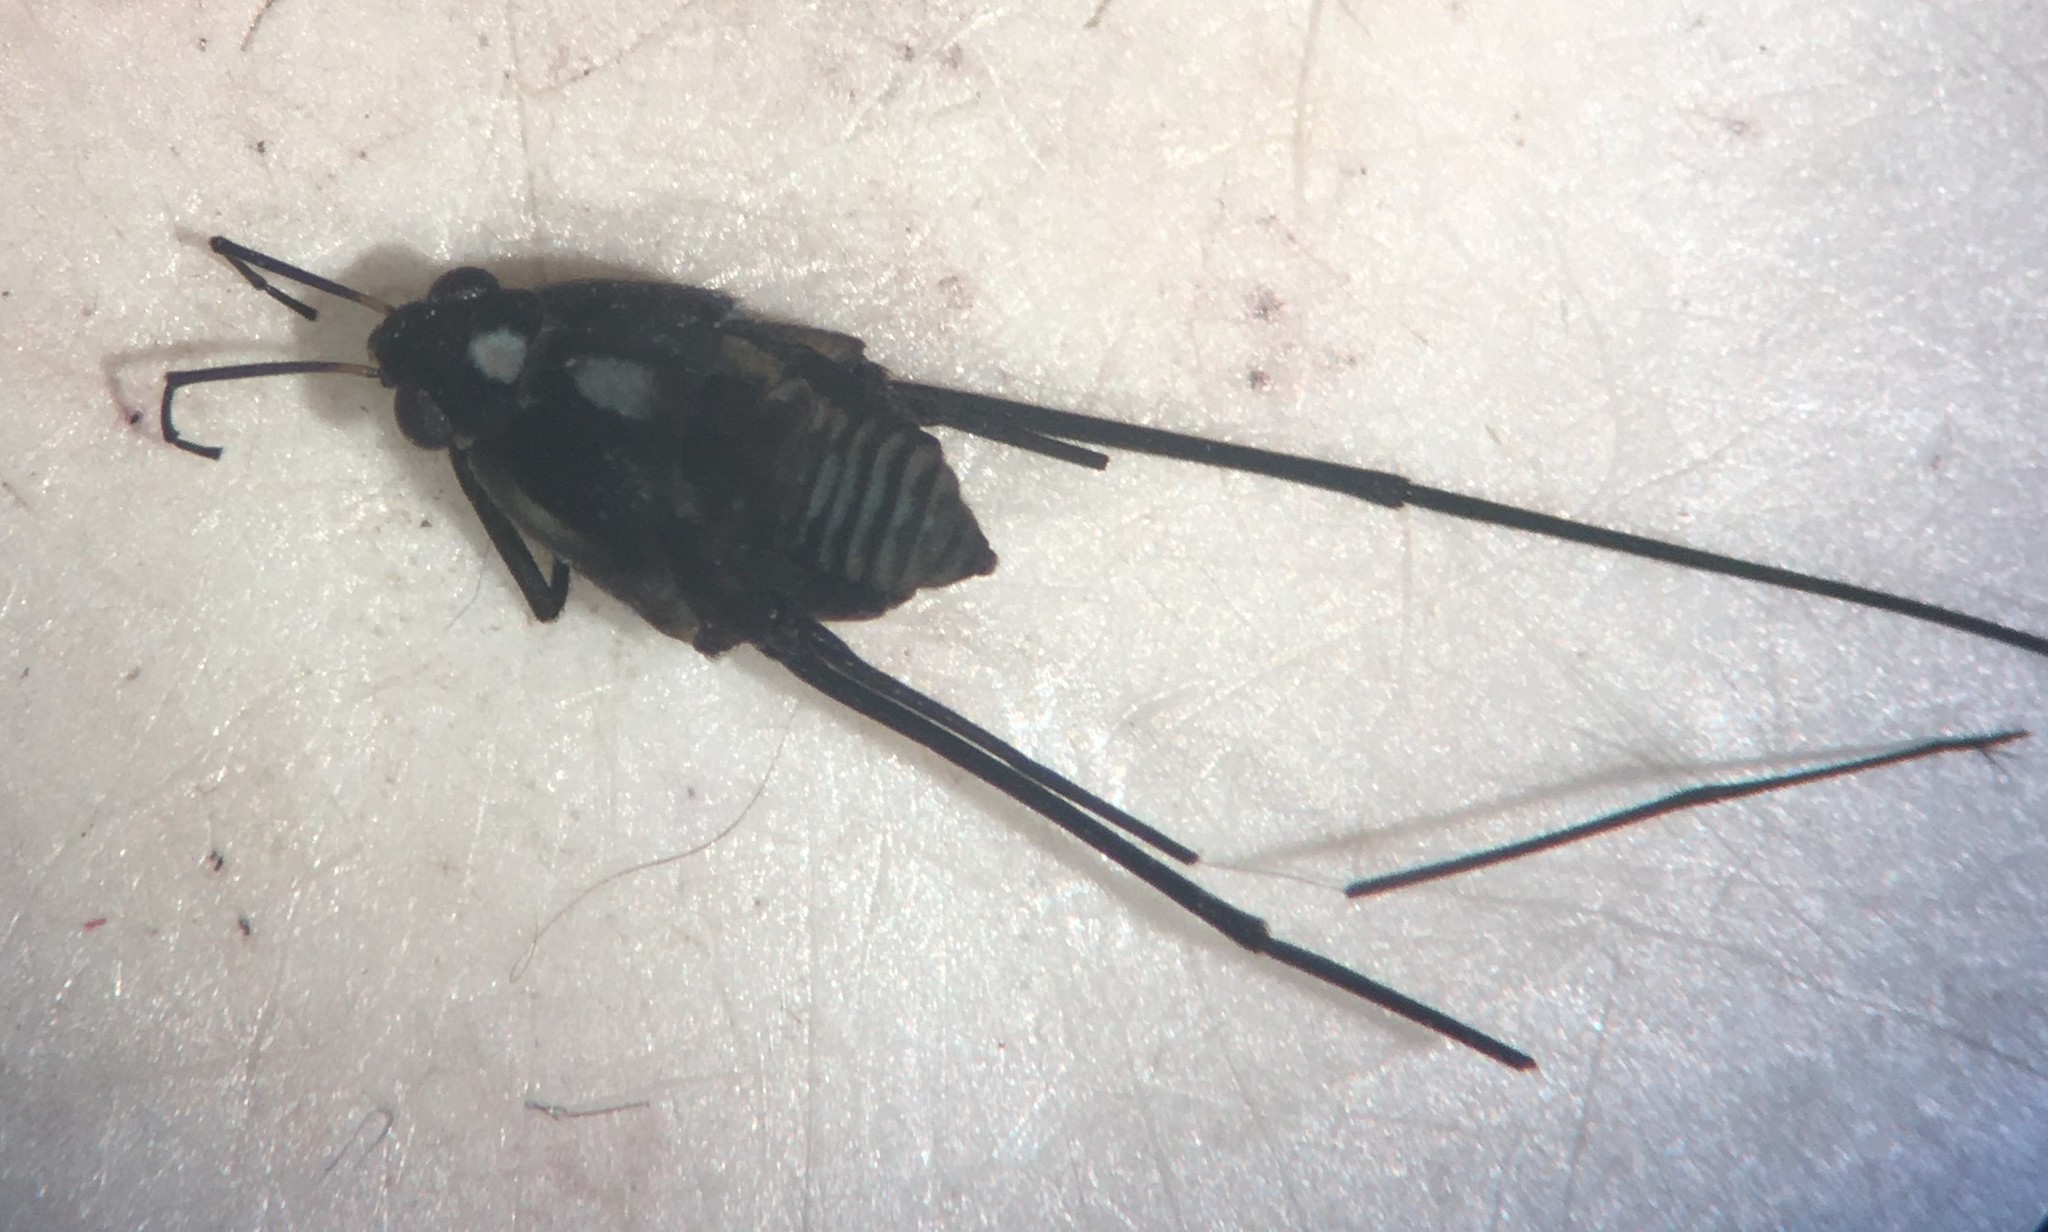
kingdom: Animalia
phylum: Arthropoda
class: Insecta
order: Hemiptera
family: Gerridae
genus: Metrobates
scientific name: Metrobates hesperius
